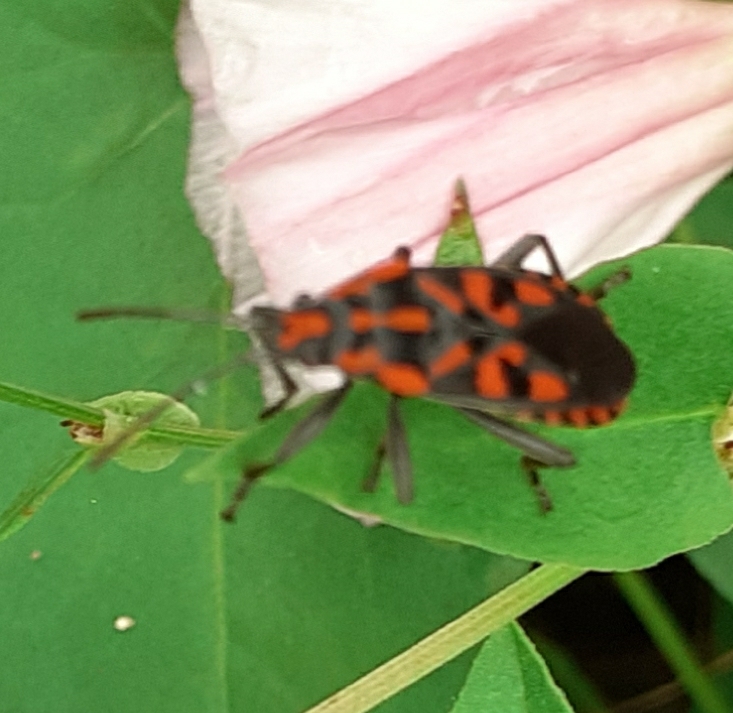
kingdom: Animalia
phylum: Arthropoda
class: Insecta
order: Hemiptera
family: Lygaeidae
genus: Spilostethus
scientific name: Spilostethus saxatilis
